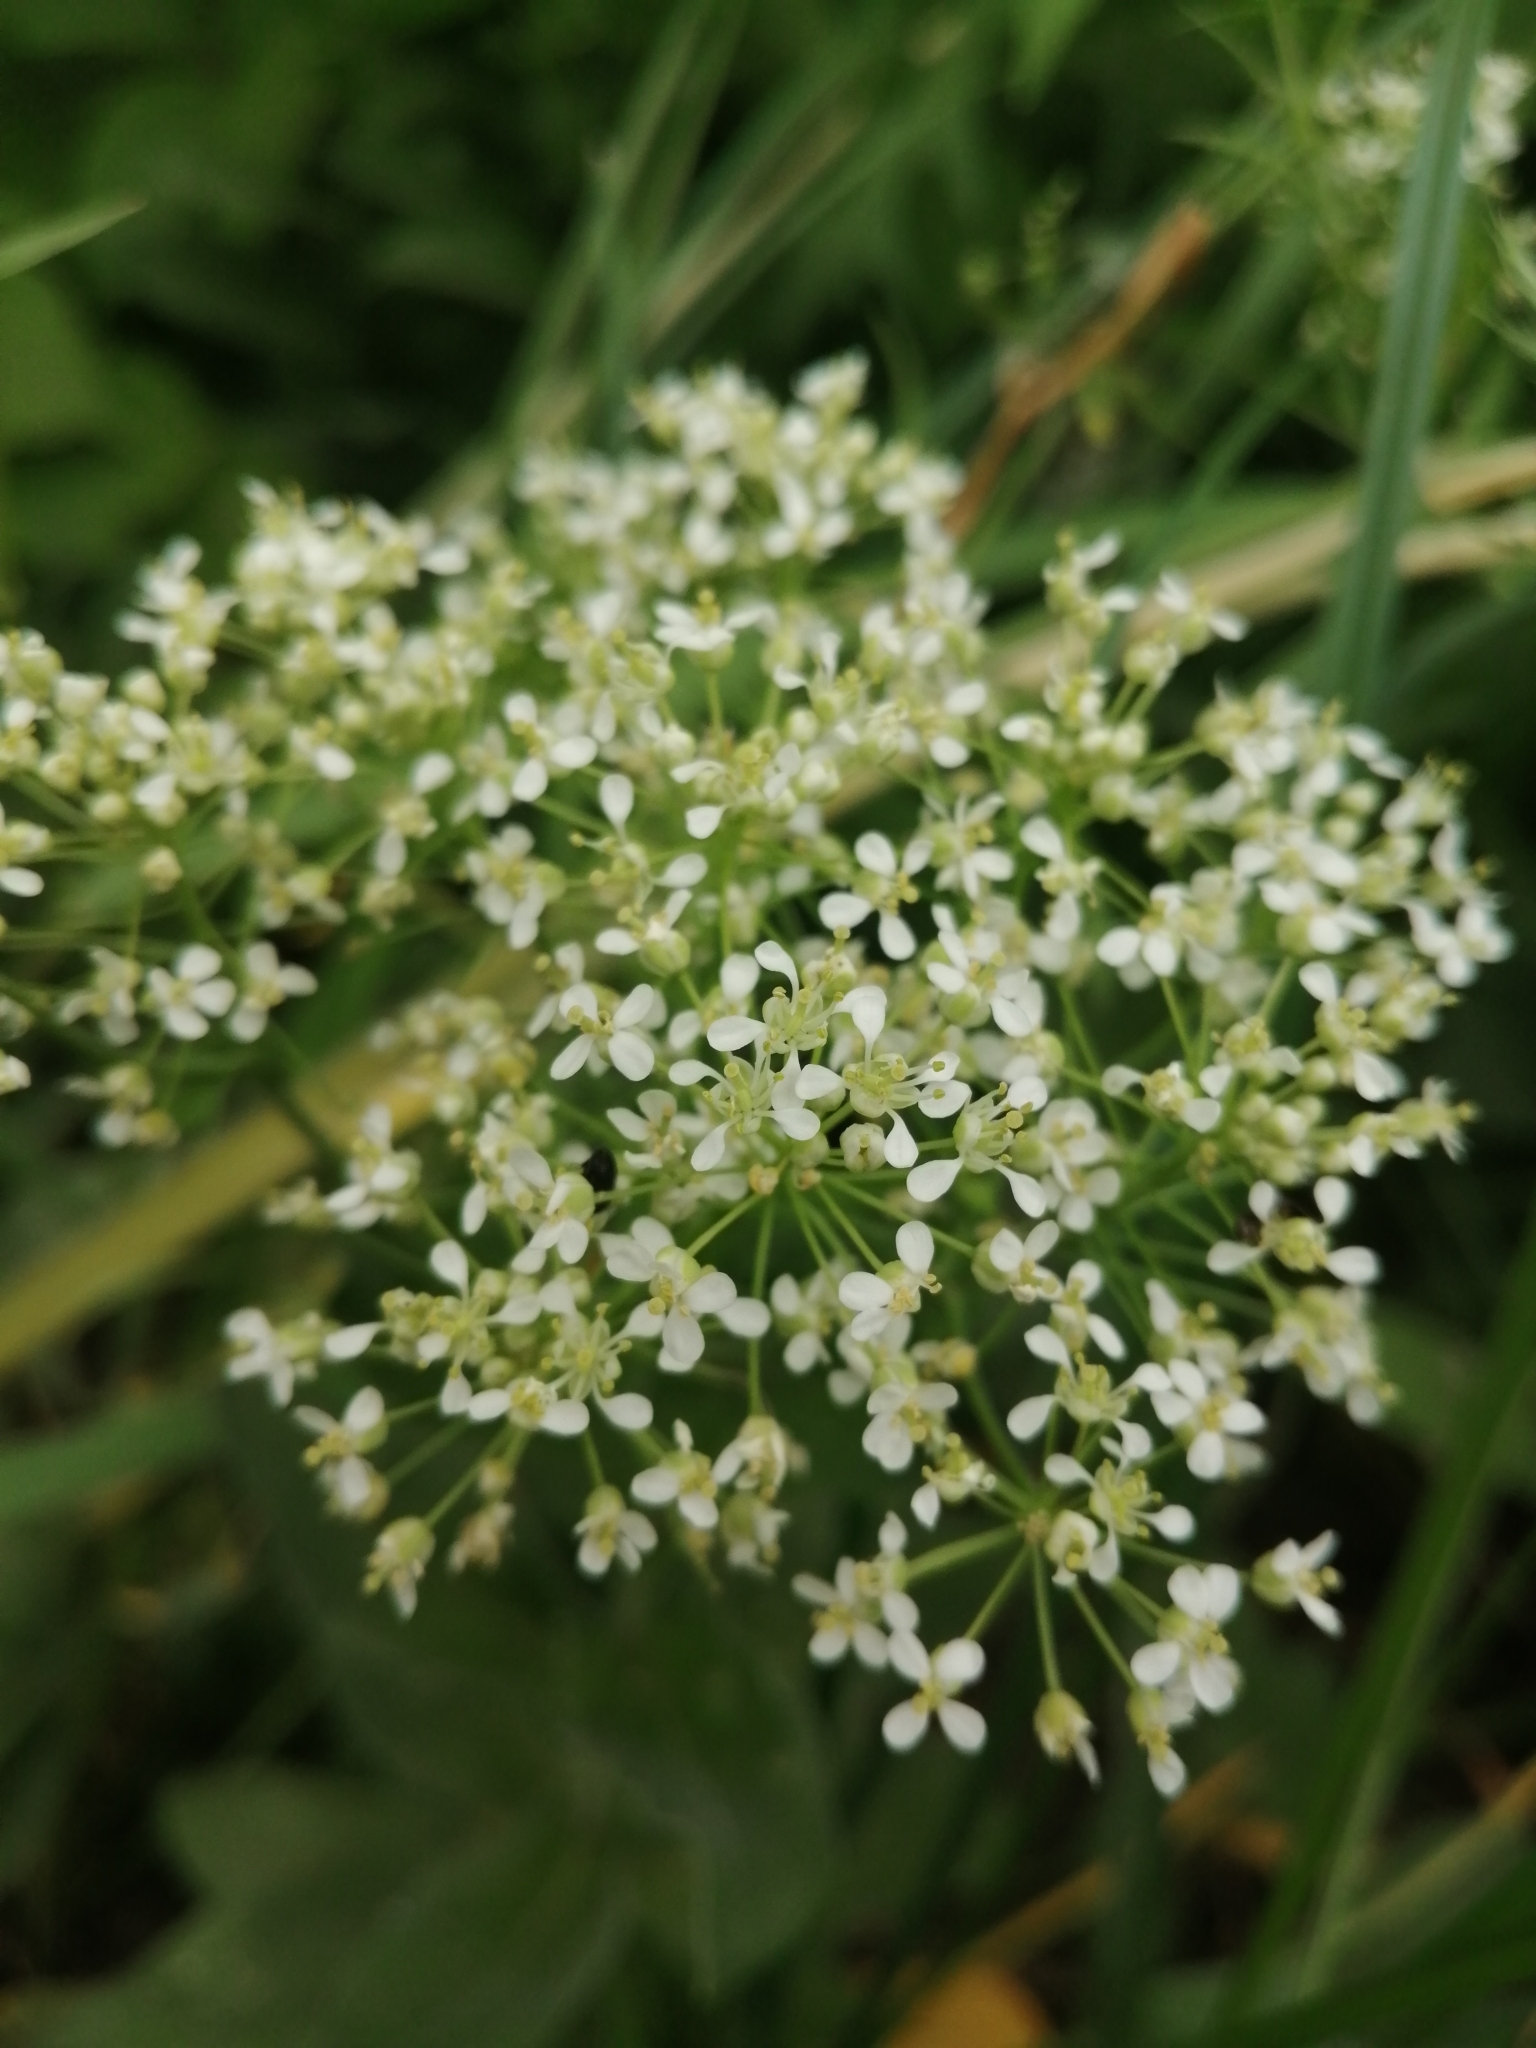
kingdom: Plantae
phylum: Tracheophyta
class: Magnoliopsida
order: Brassicales
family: Brassicaceae
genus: Lepidium
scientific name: Lepidium draba
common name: Hoary cress
